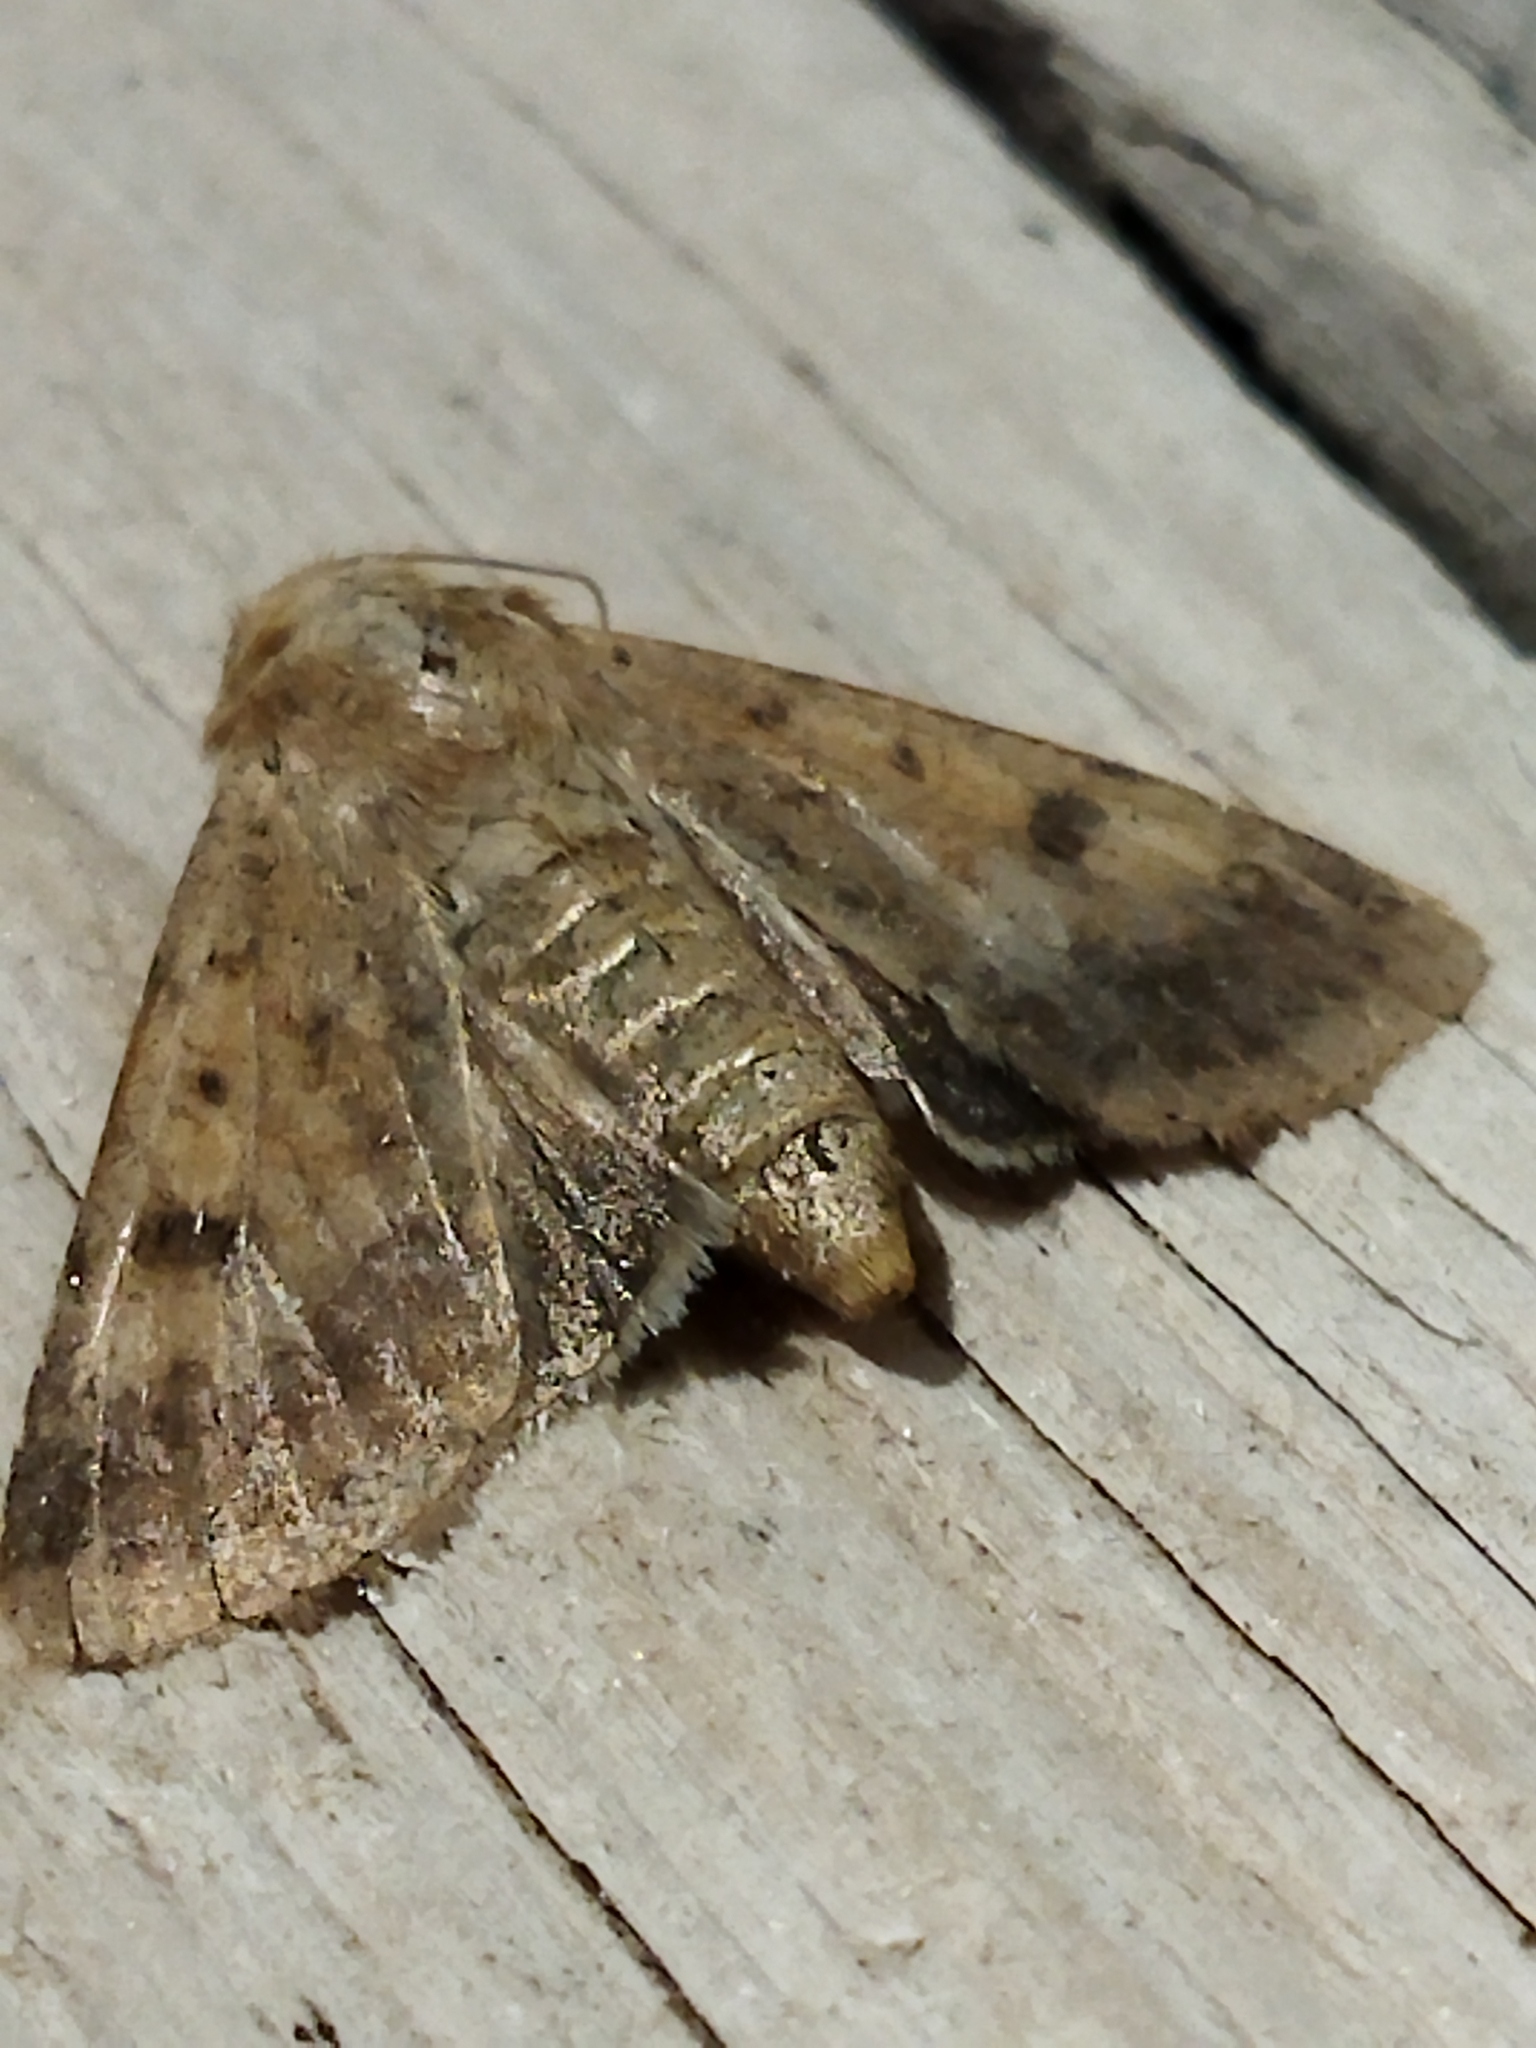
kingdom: Animalia
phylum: Arthropoda
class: Insecta
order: Lepidoptera
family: Noctuidae
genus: Helicoverpa
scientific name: Helicoverpa armigera
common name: Cotton bollworm
